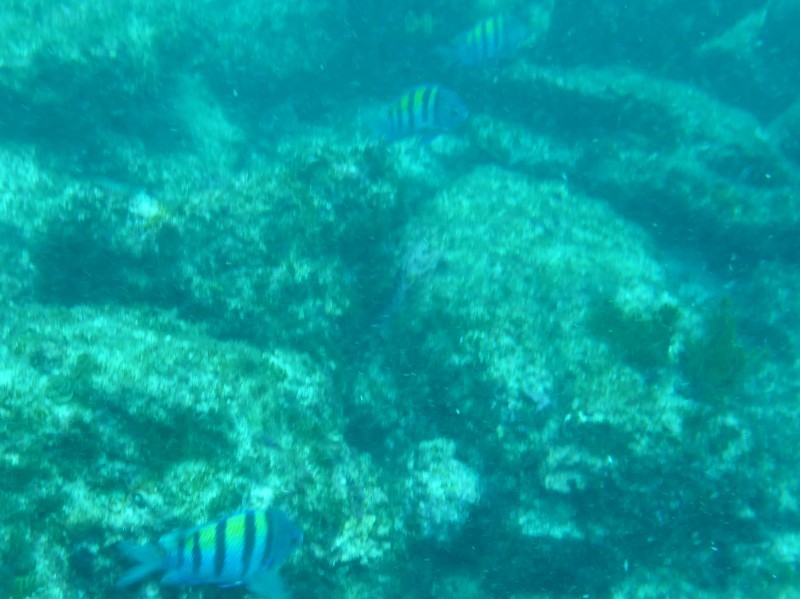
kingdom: Animalia
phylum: Chordata
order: Perciformes
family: Pomacentridae
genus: Abudefduf
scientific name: Abudefduf troschelii
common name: Panamic sergeant major
